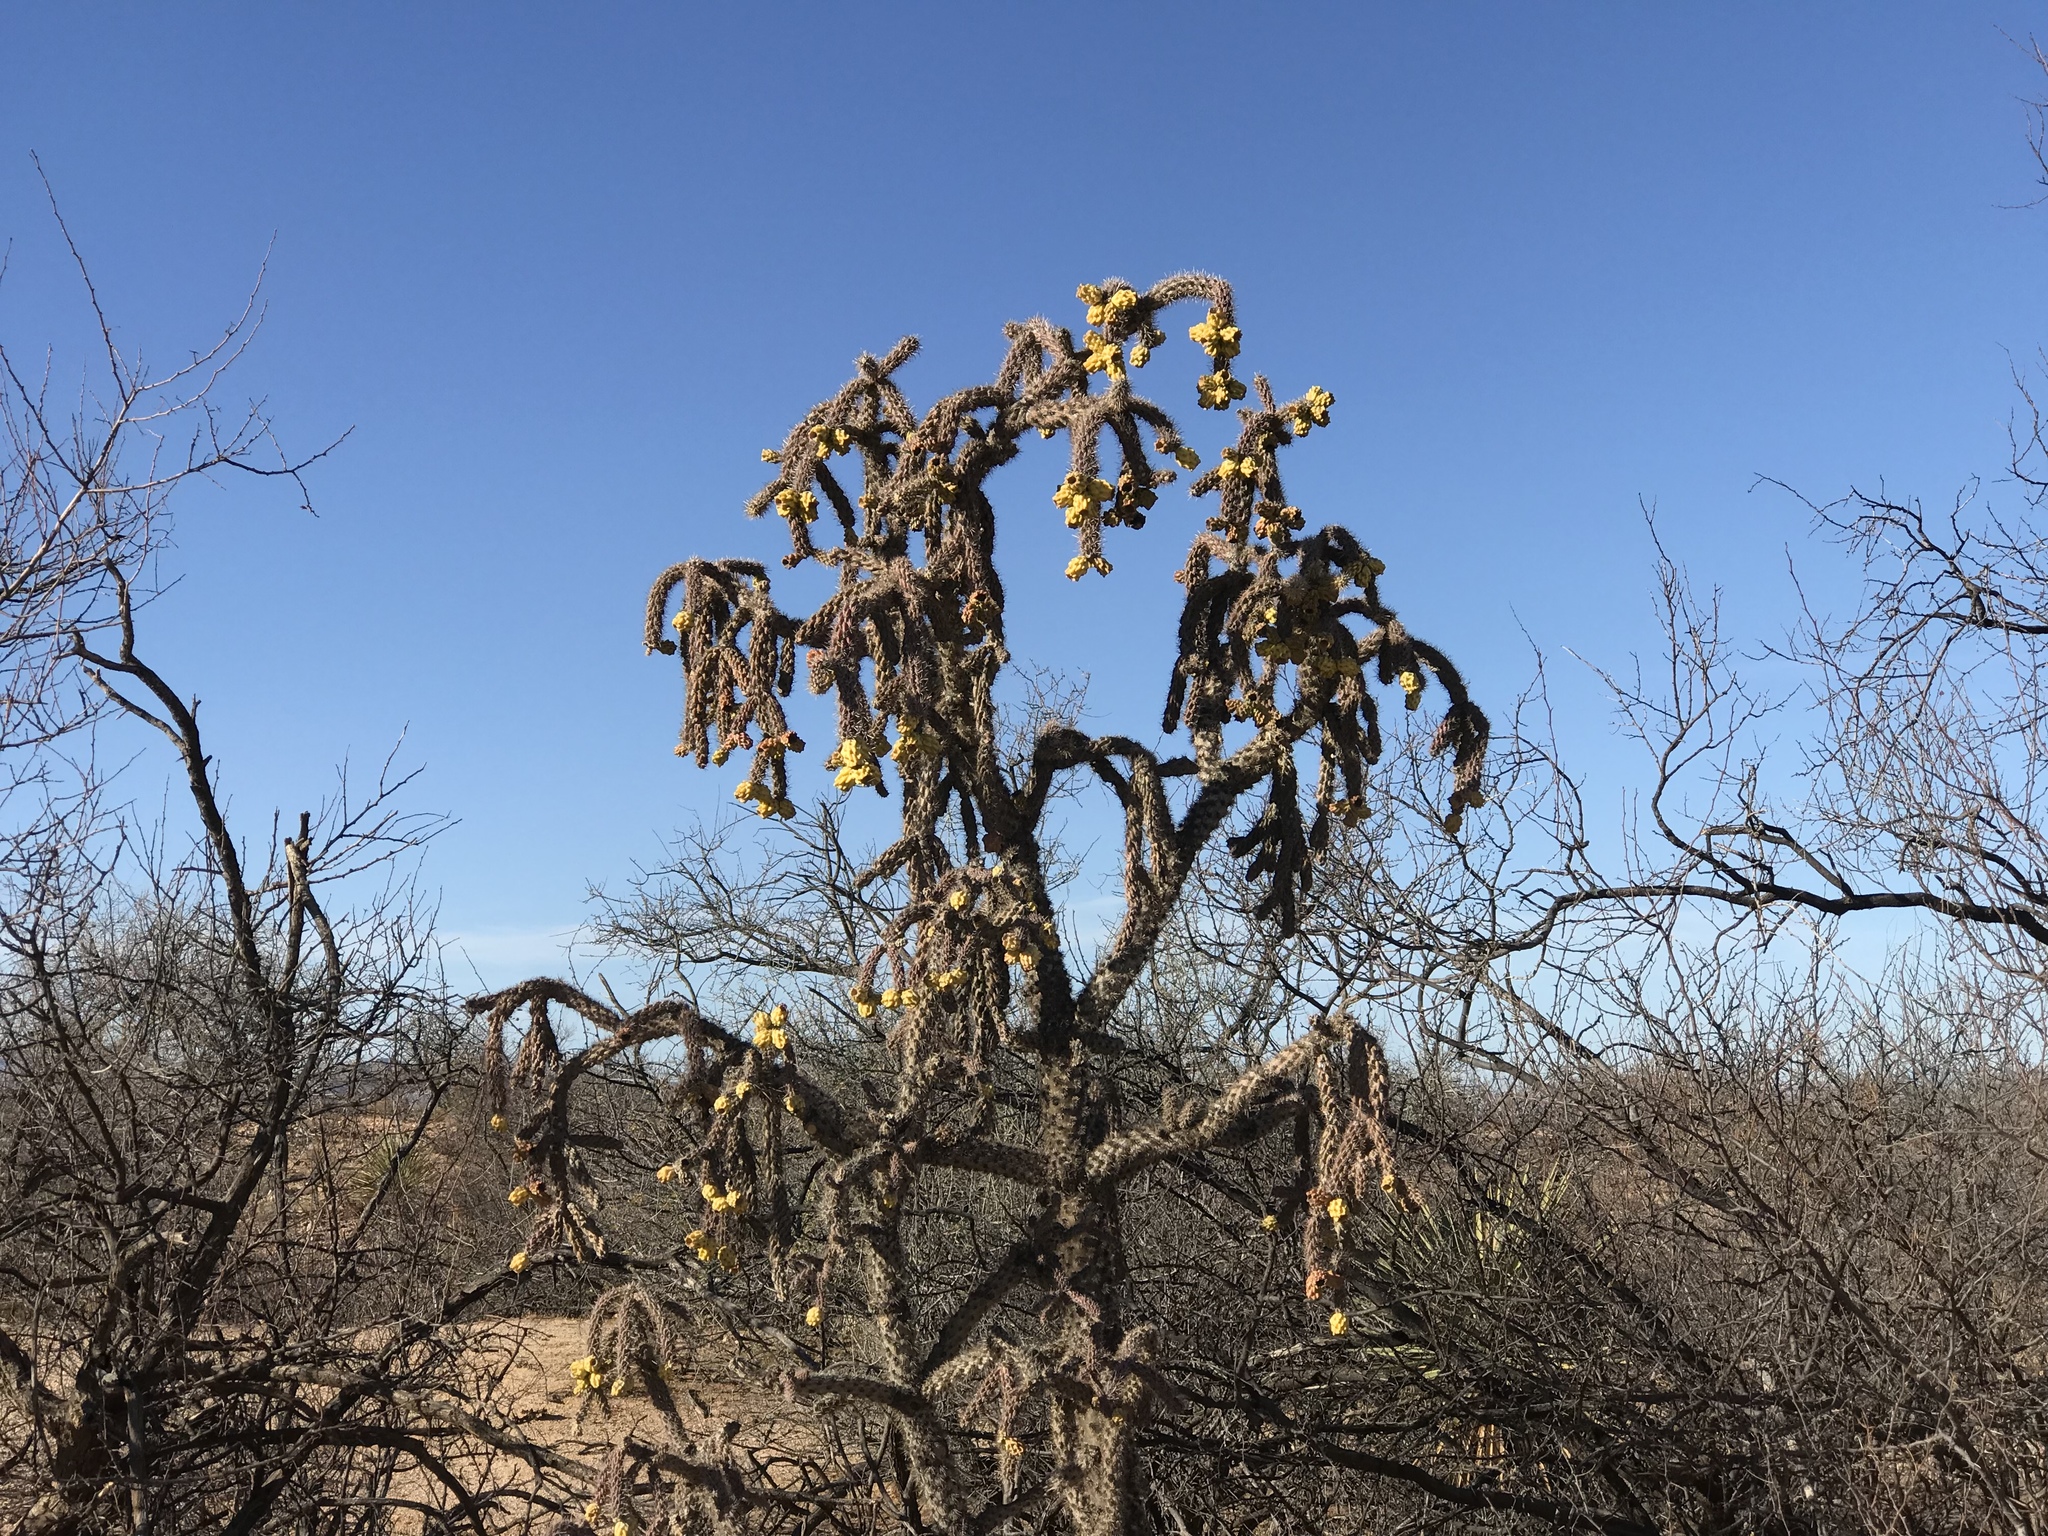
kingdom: Plantae
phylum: Tracheophyta
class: Magnoliopsida
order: Caryophyllales
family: Cactaceae
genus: Cylindropuntia
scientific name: Cylindropuntia imbricata
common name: Candelabrum cactus
